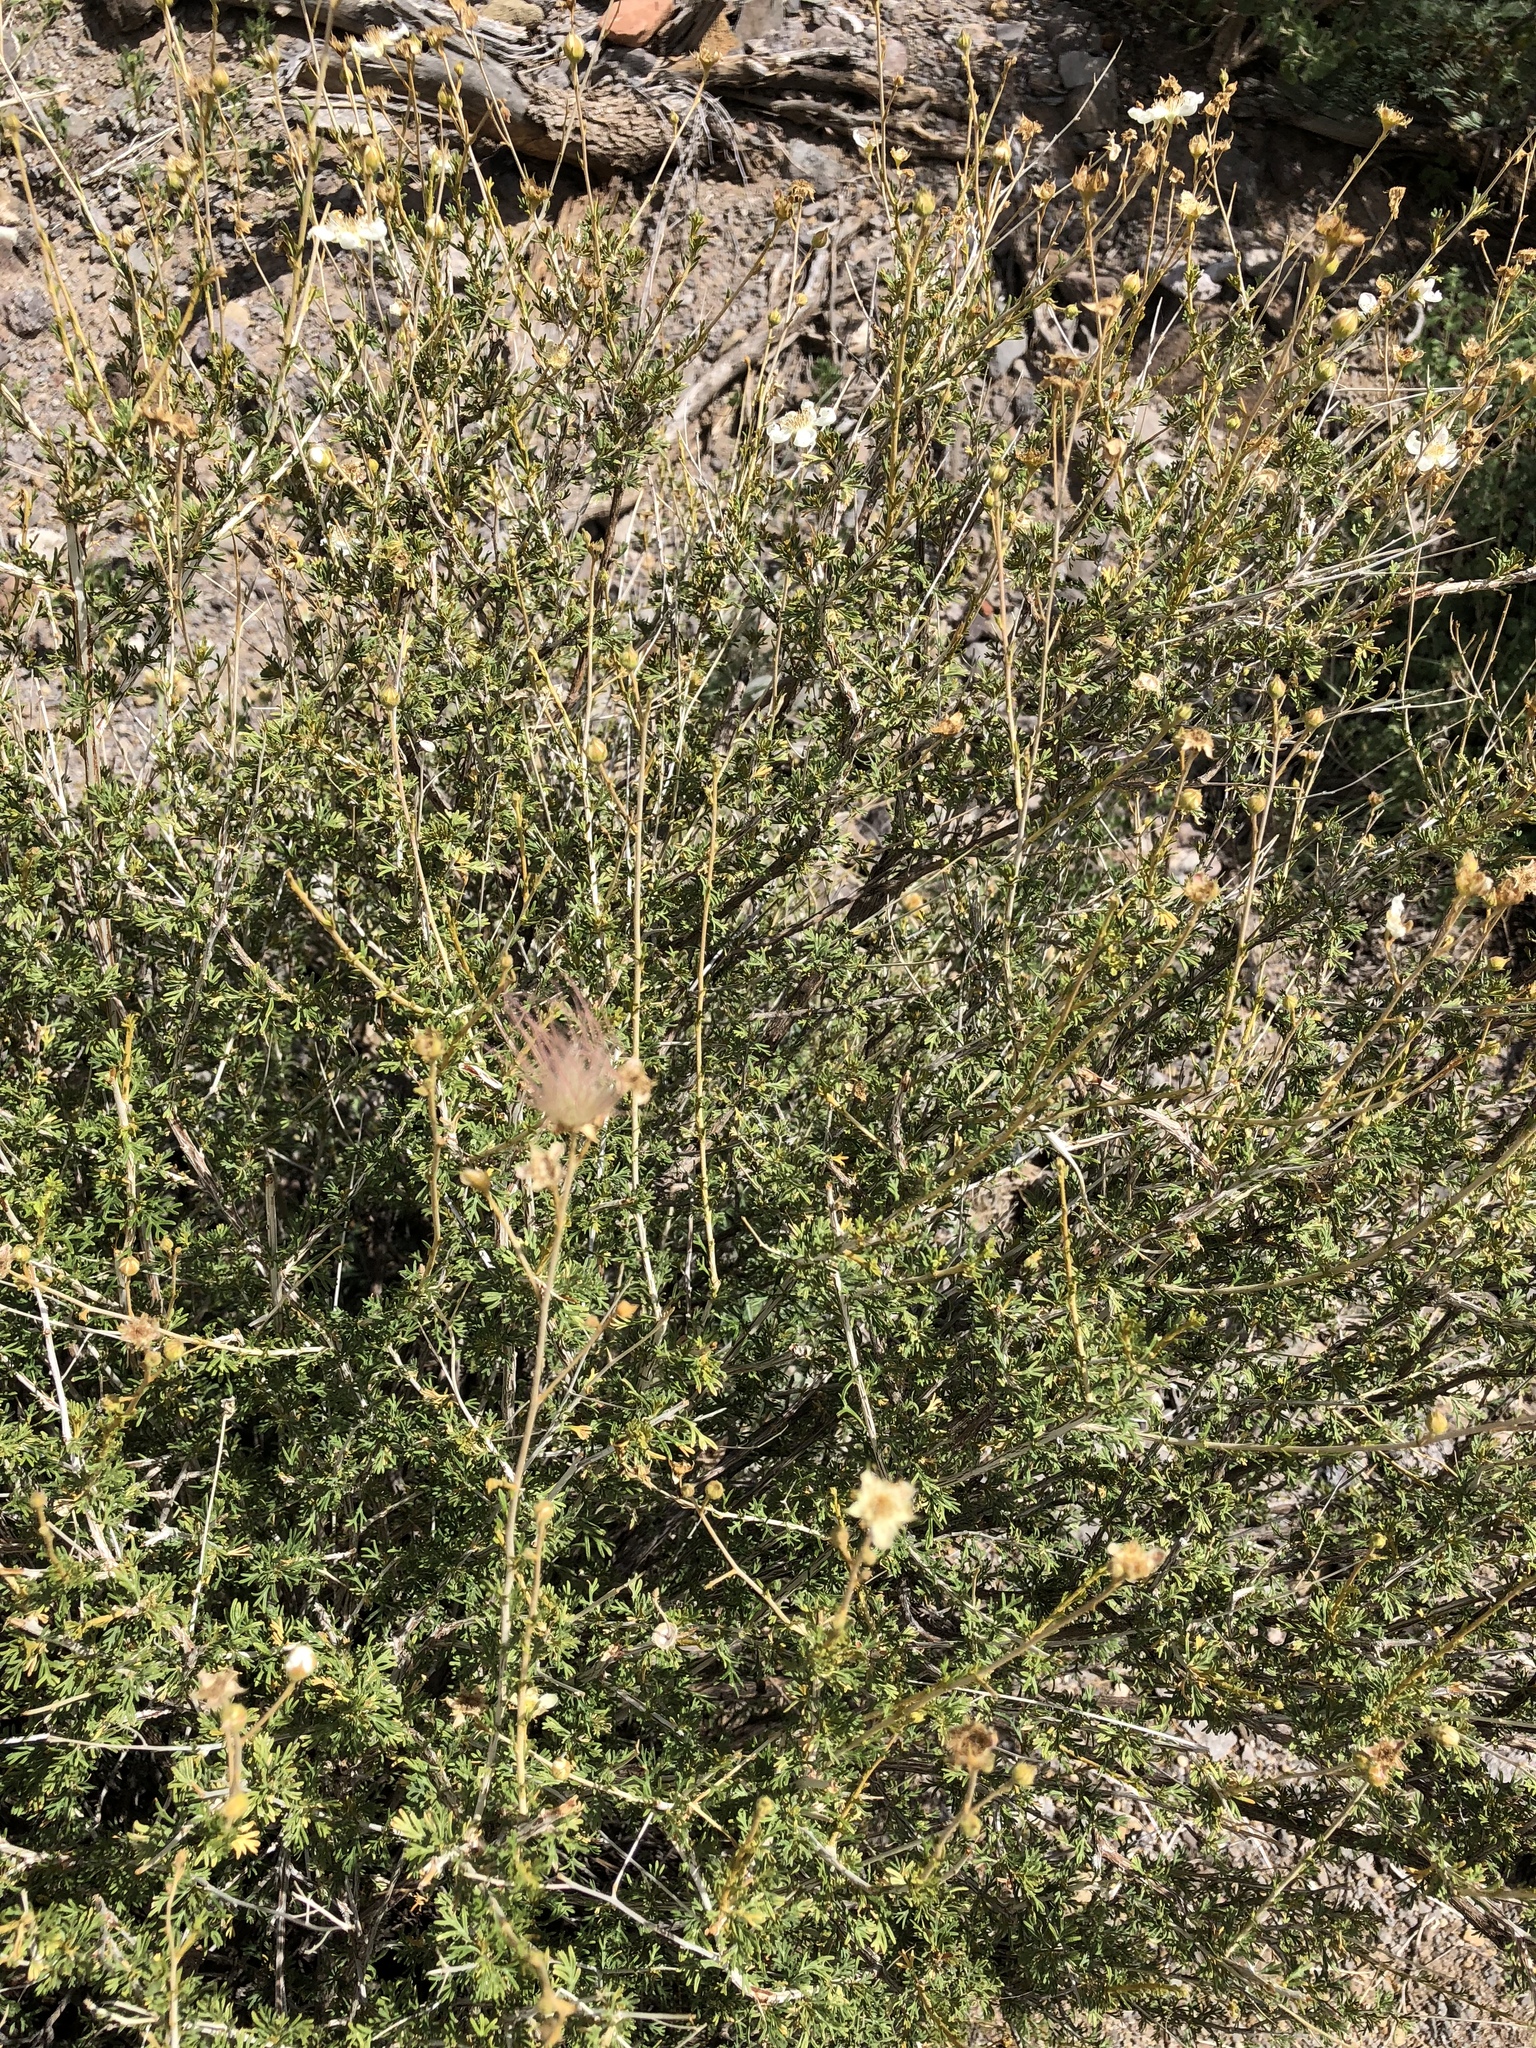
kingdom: Plantae
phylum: Tracheophyta
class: Magnoliopsida
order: Rosales
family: Rosaceae
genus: Fallugia
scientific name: Fallugia paradoxa
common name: Apache-plume
